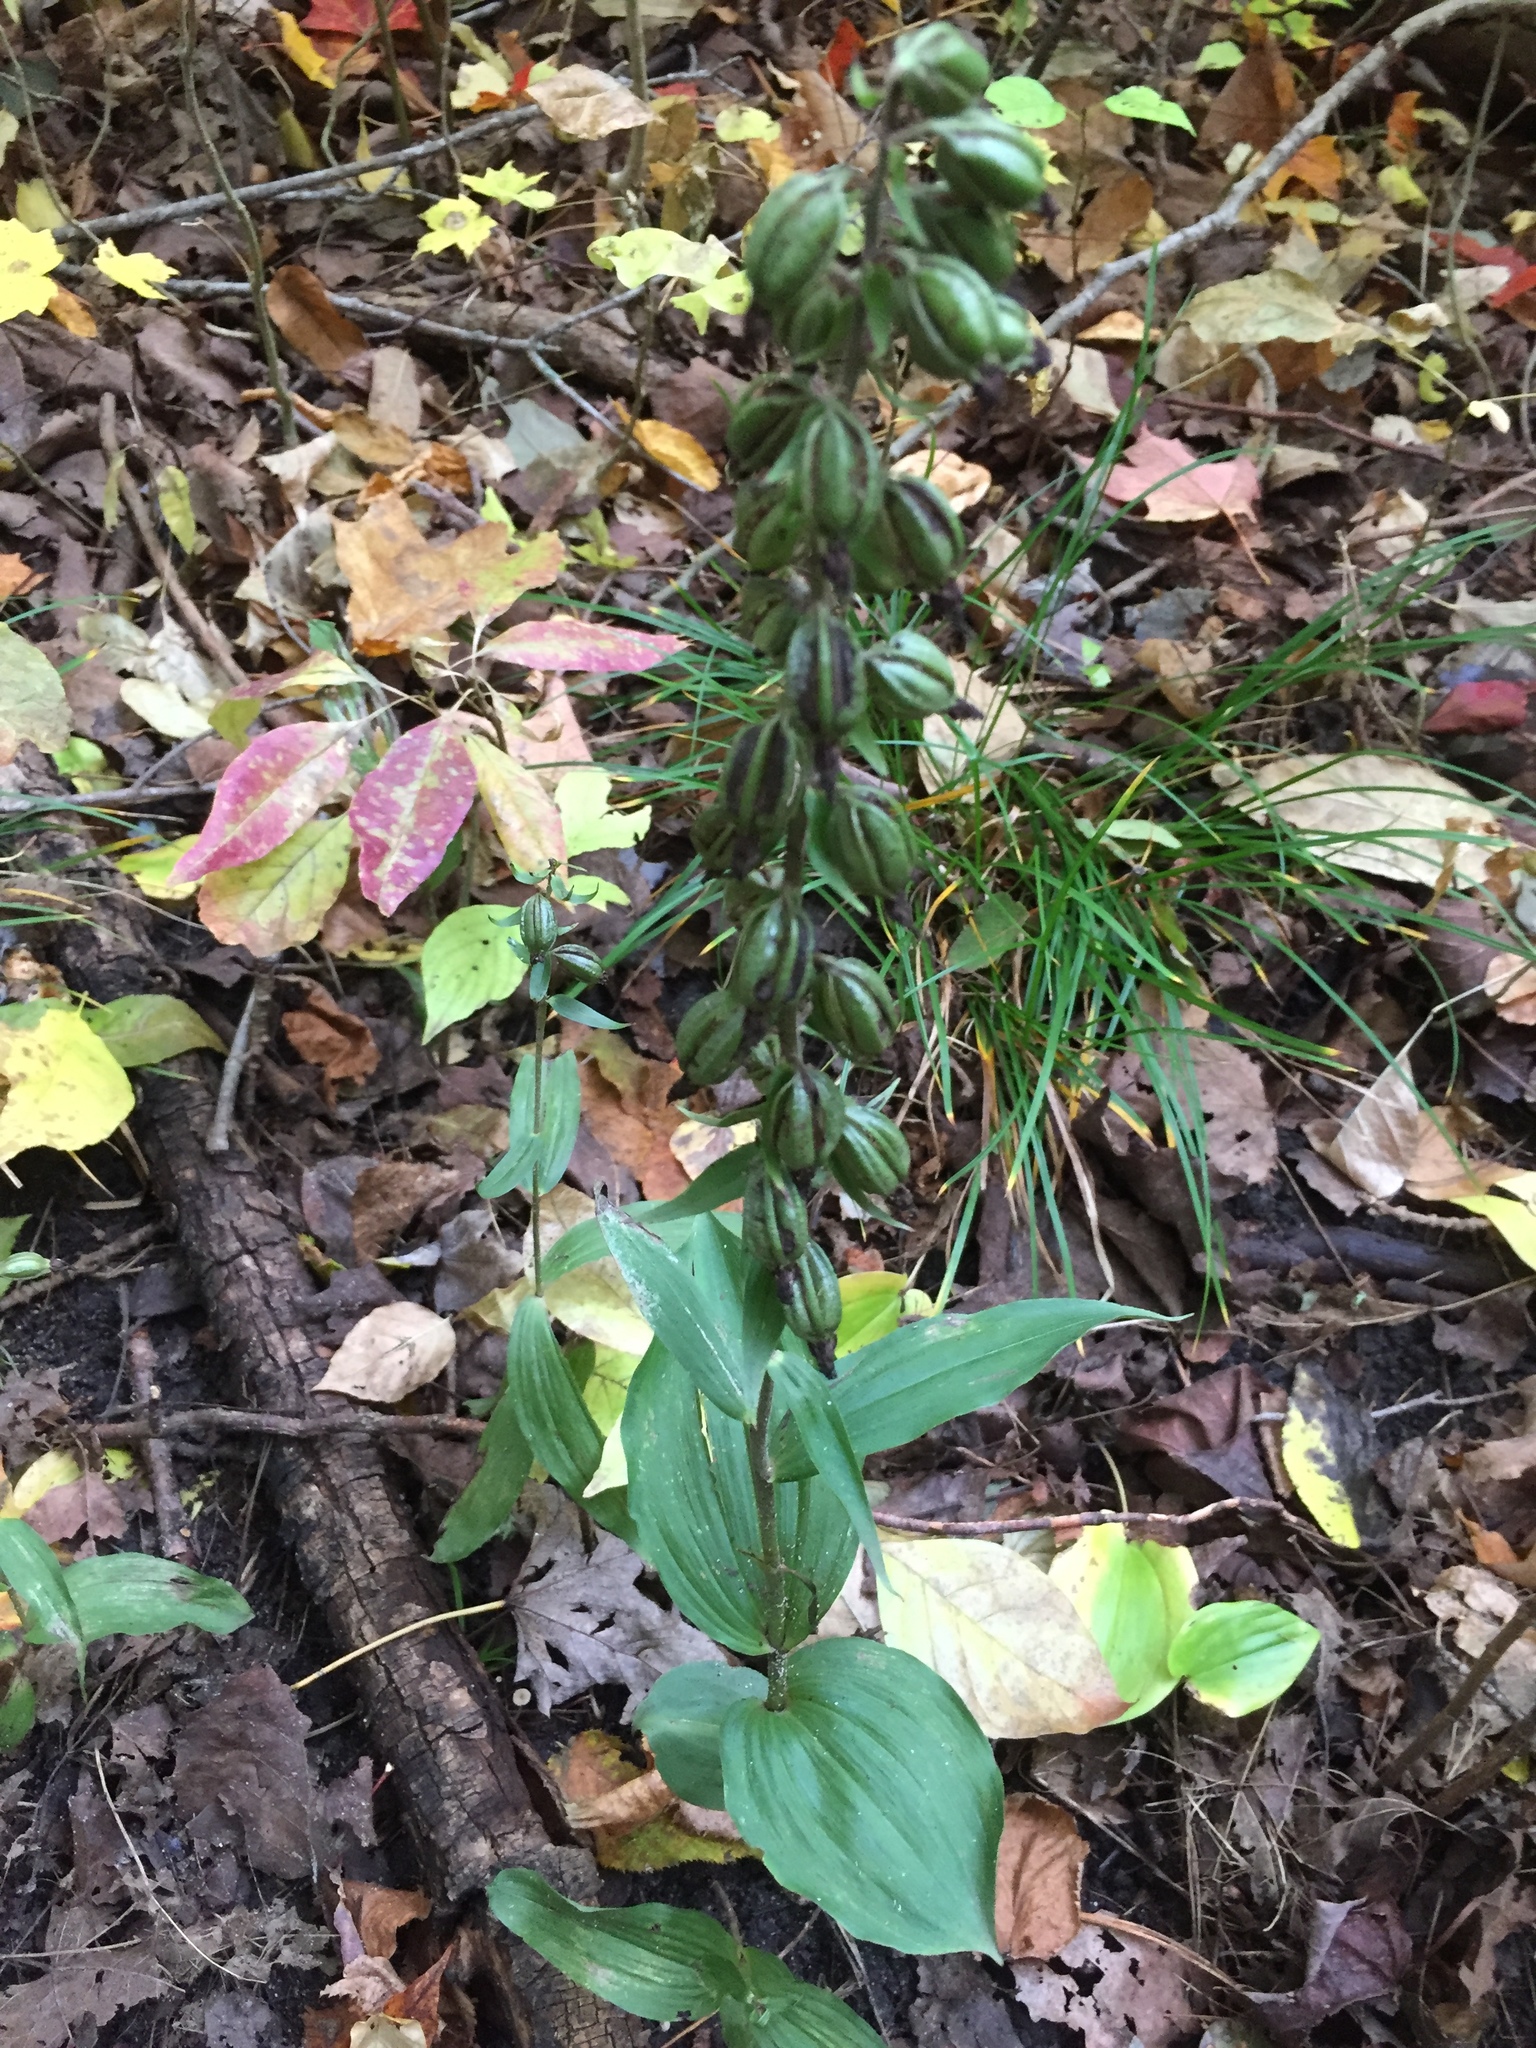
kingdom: Plantae
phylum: Tracheophyta
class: Liliopsida
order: Asparagales
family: Orchidaceae
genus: Epipactis
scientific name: Epipactis helleborine
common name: Broad-leaved helleborine
